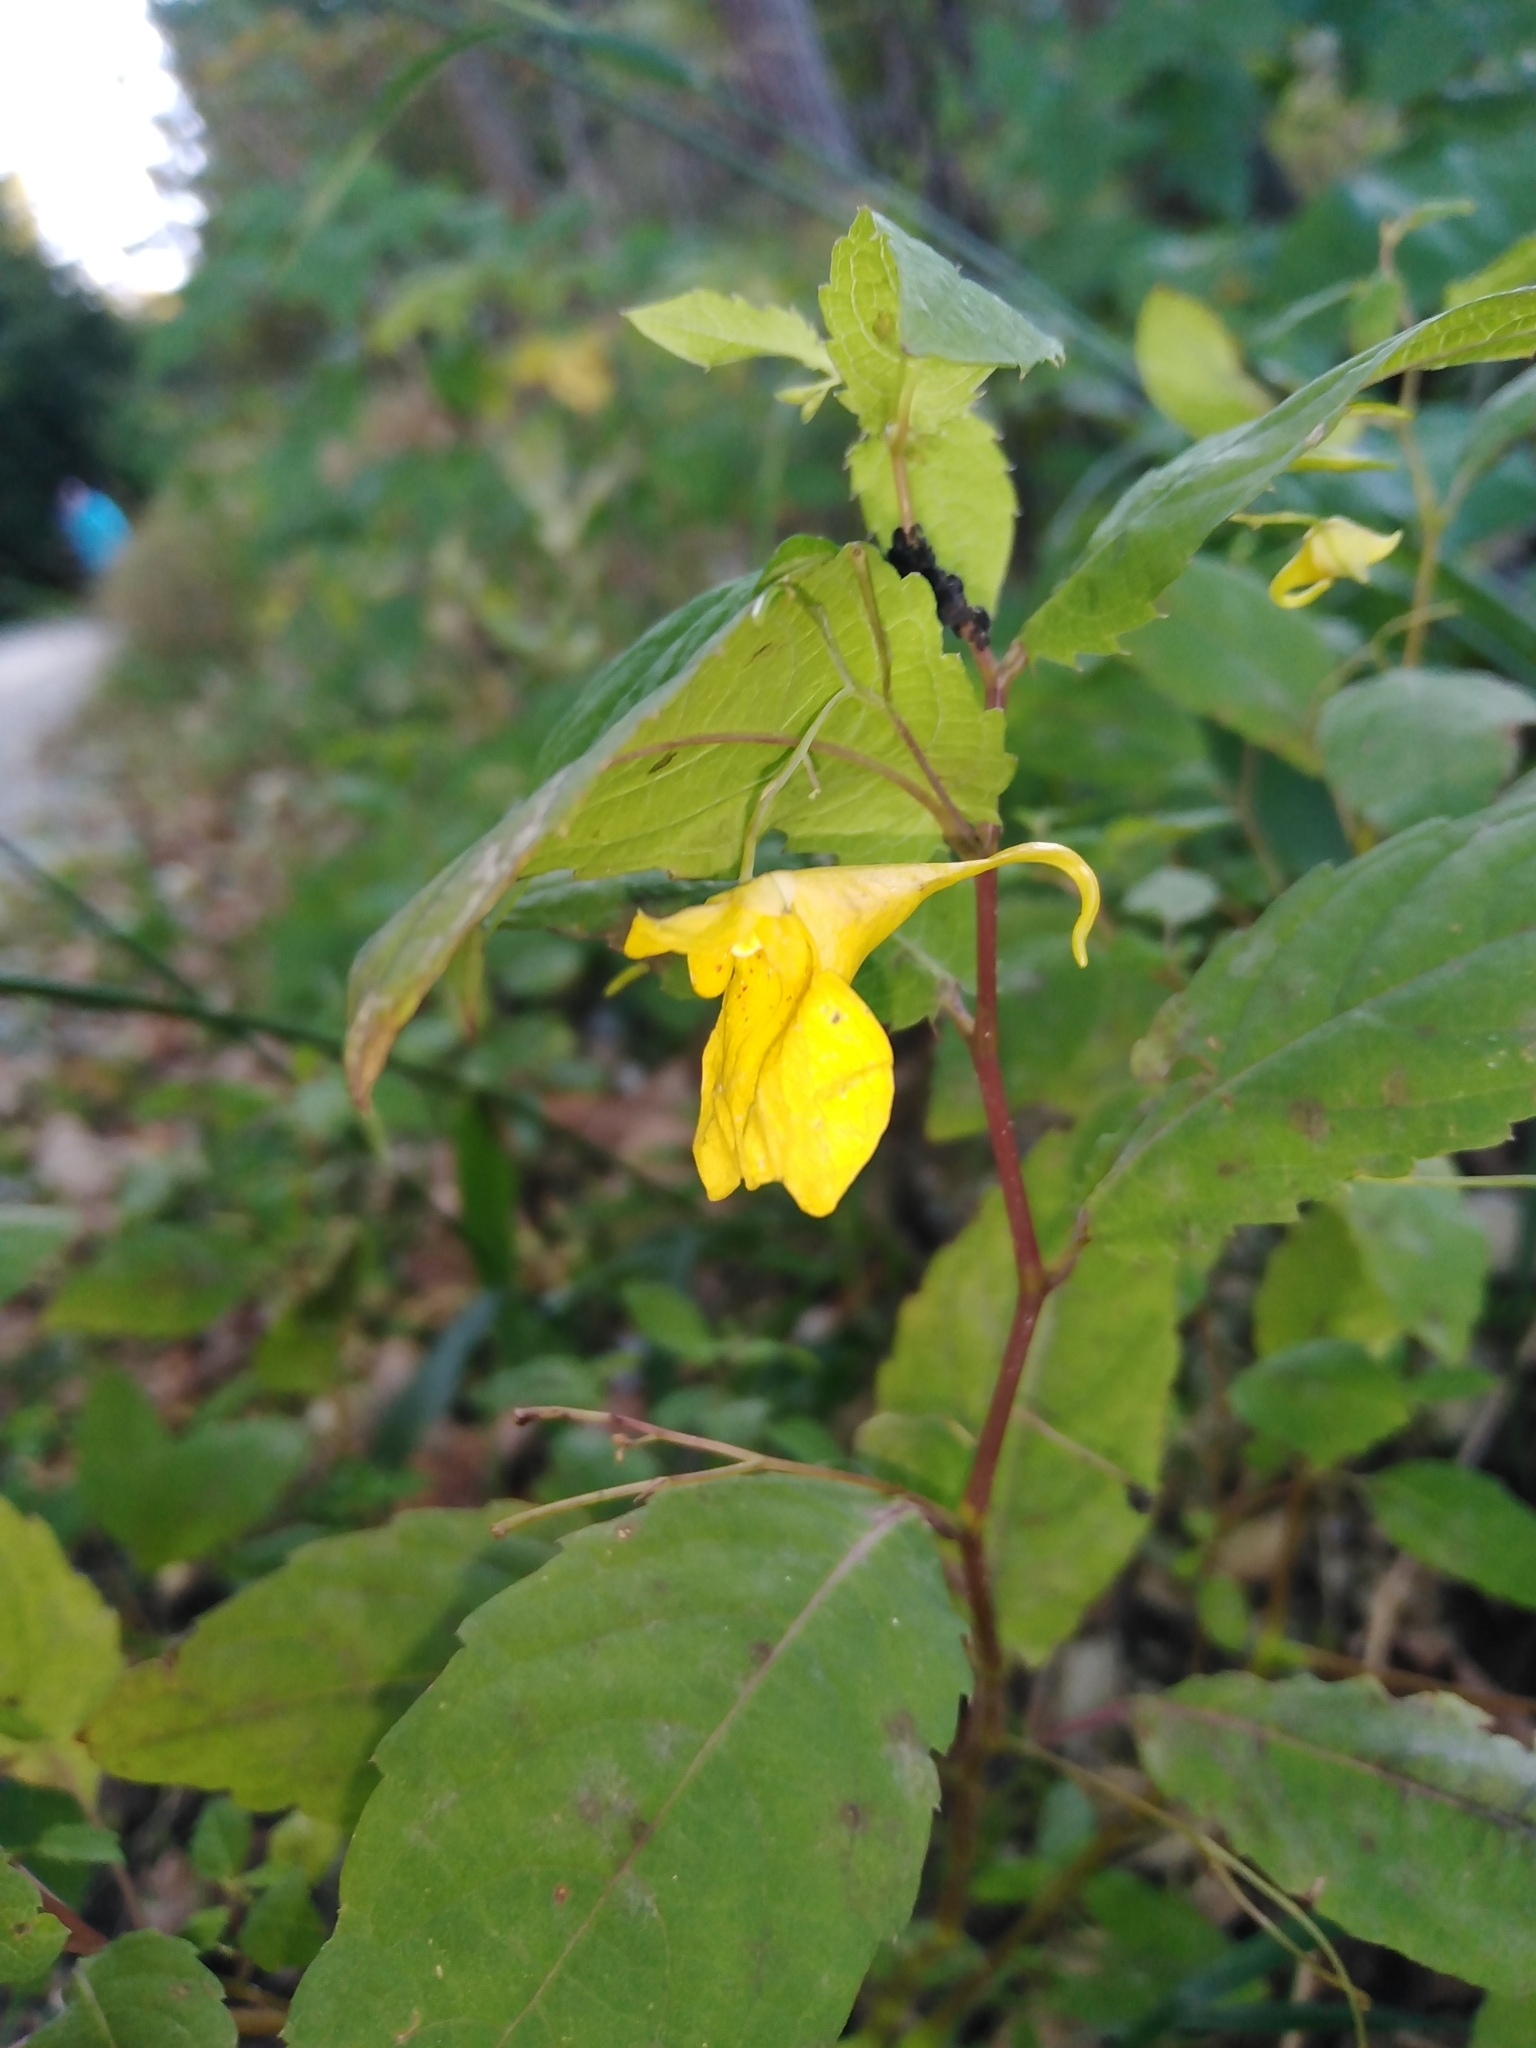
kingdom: Plantae
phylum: Tracheophyta
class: Magnoliopsida
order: Ericales
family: Balsaminaceae
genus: Impatiens
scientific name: Impatiens noli-tangere
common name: Touch-me-not balsam
